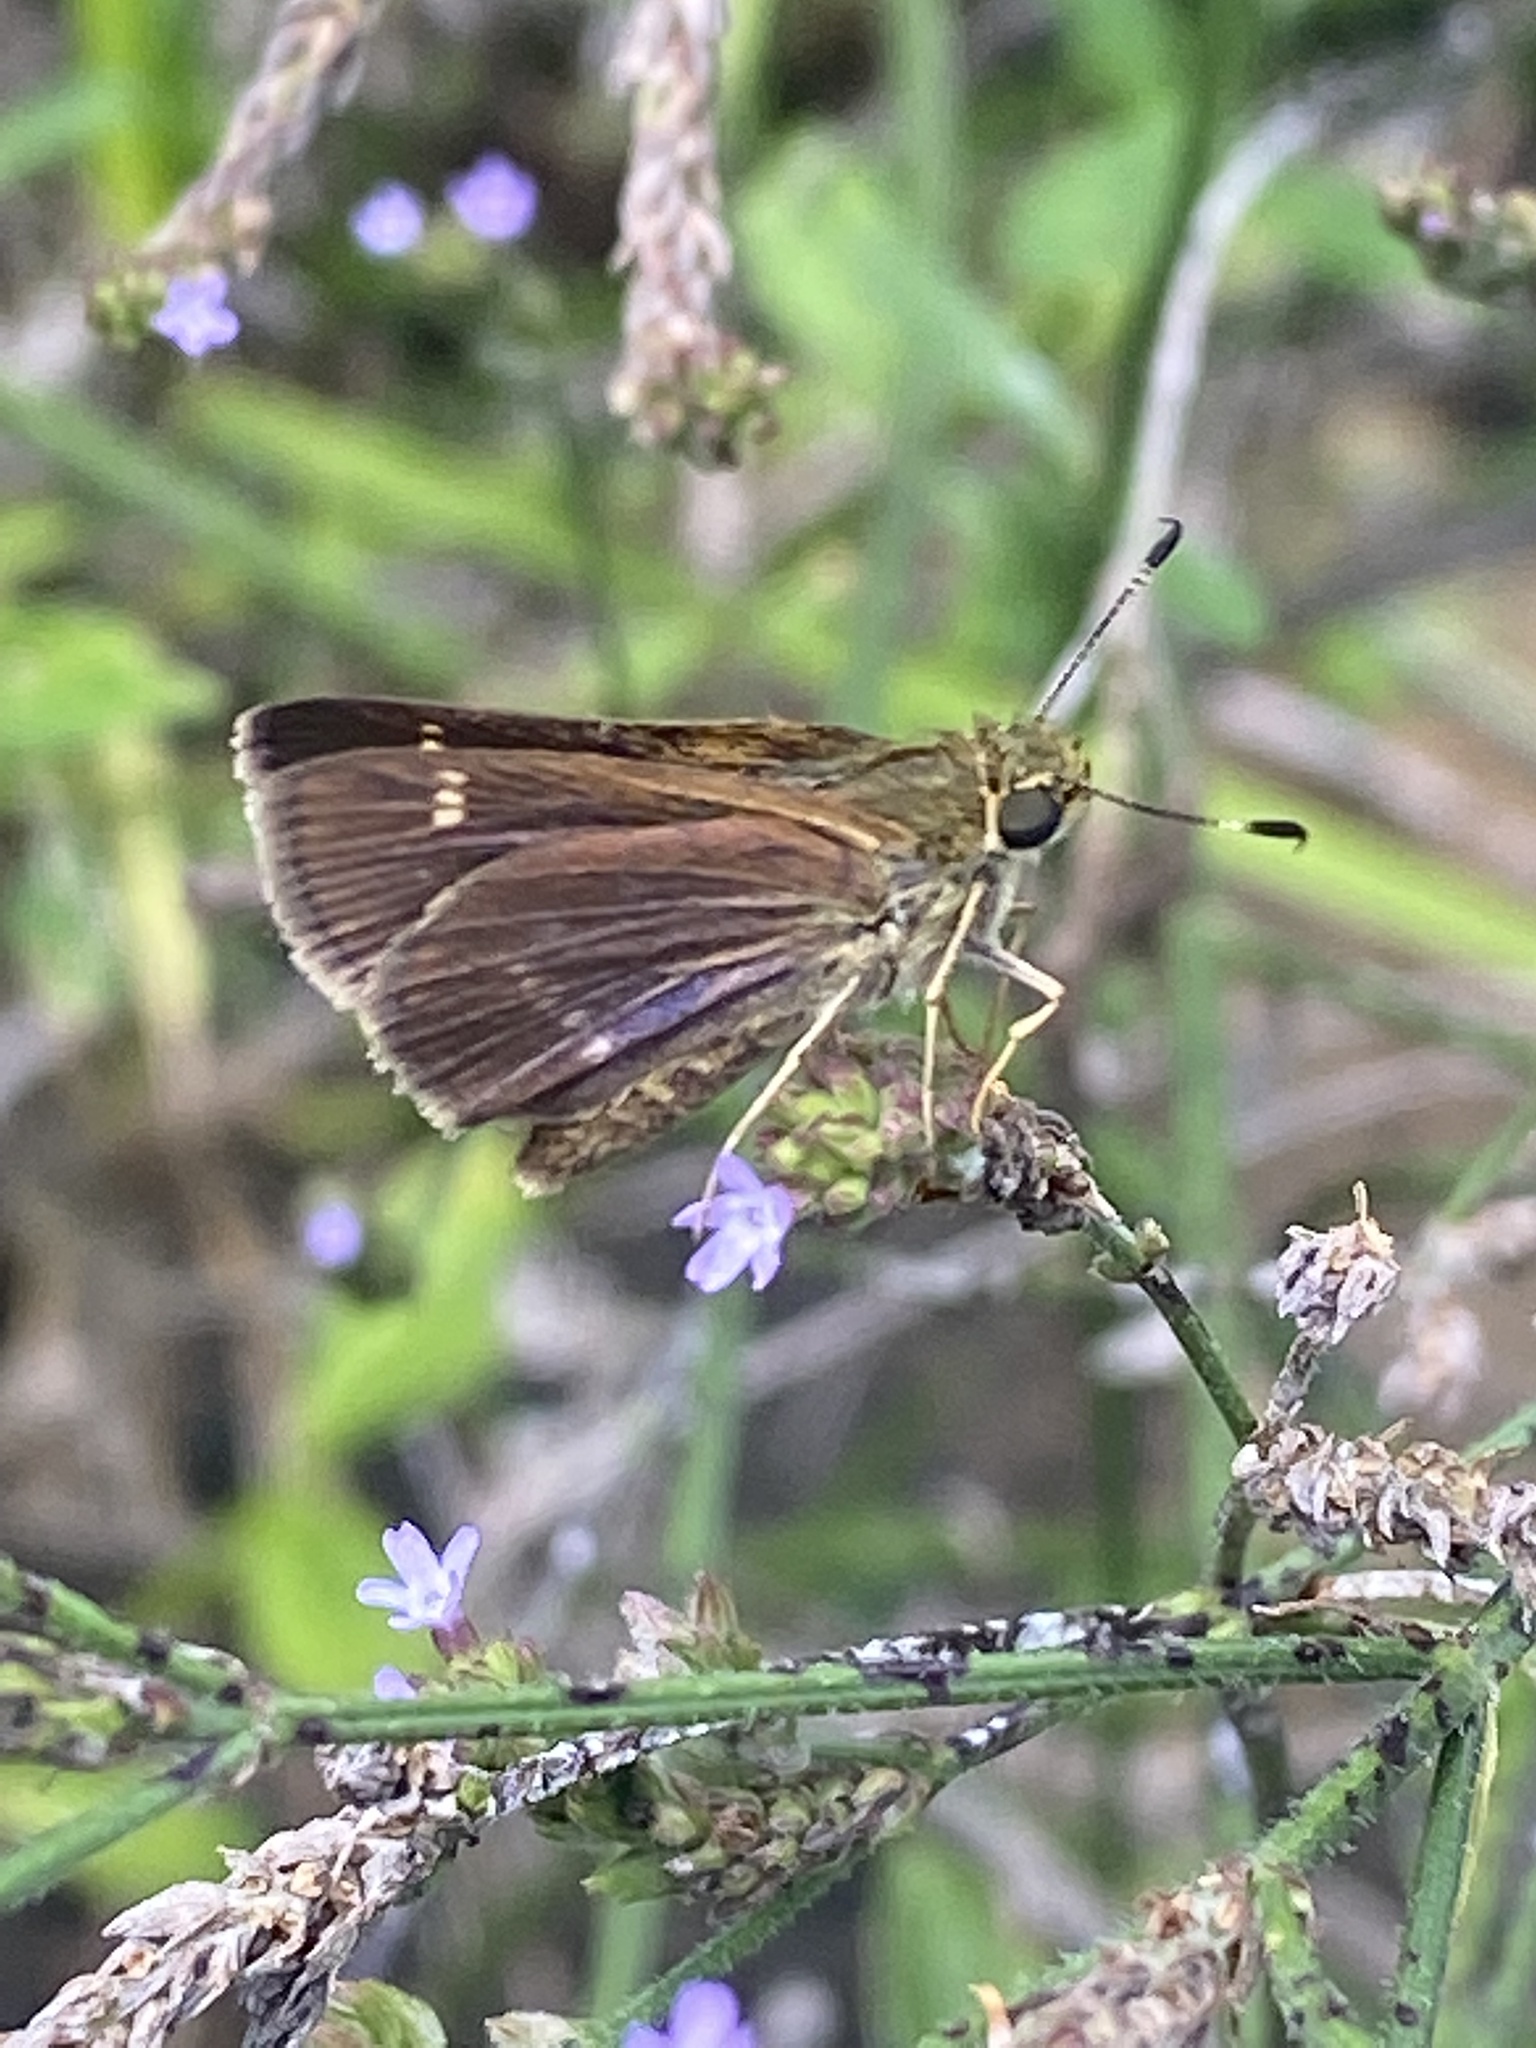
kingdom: Animalia
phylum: Arthropoda
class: Insecta
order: Lepidoptera
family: Hesperiidae
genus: Vernia
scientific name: Vernia verna
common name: Little glassywing
